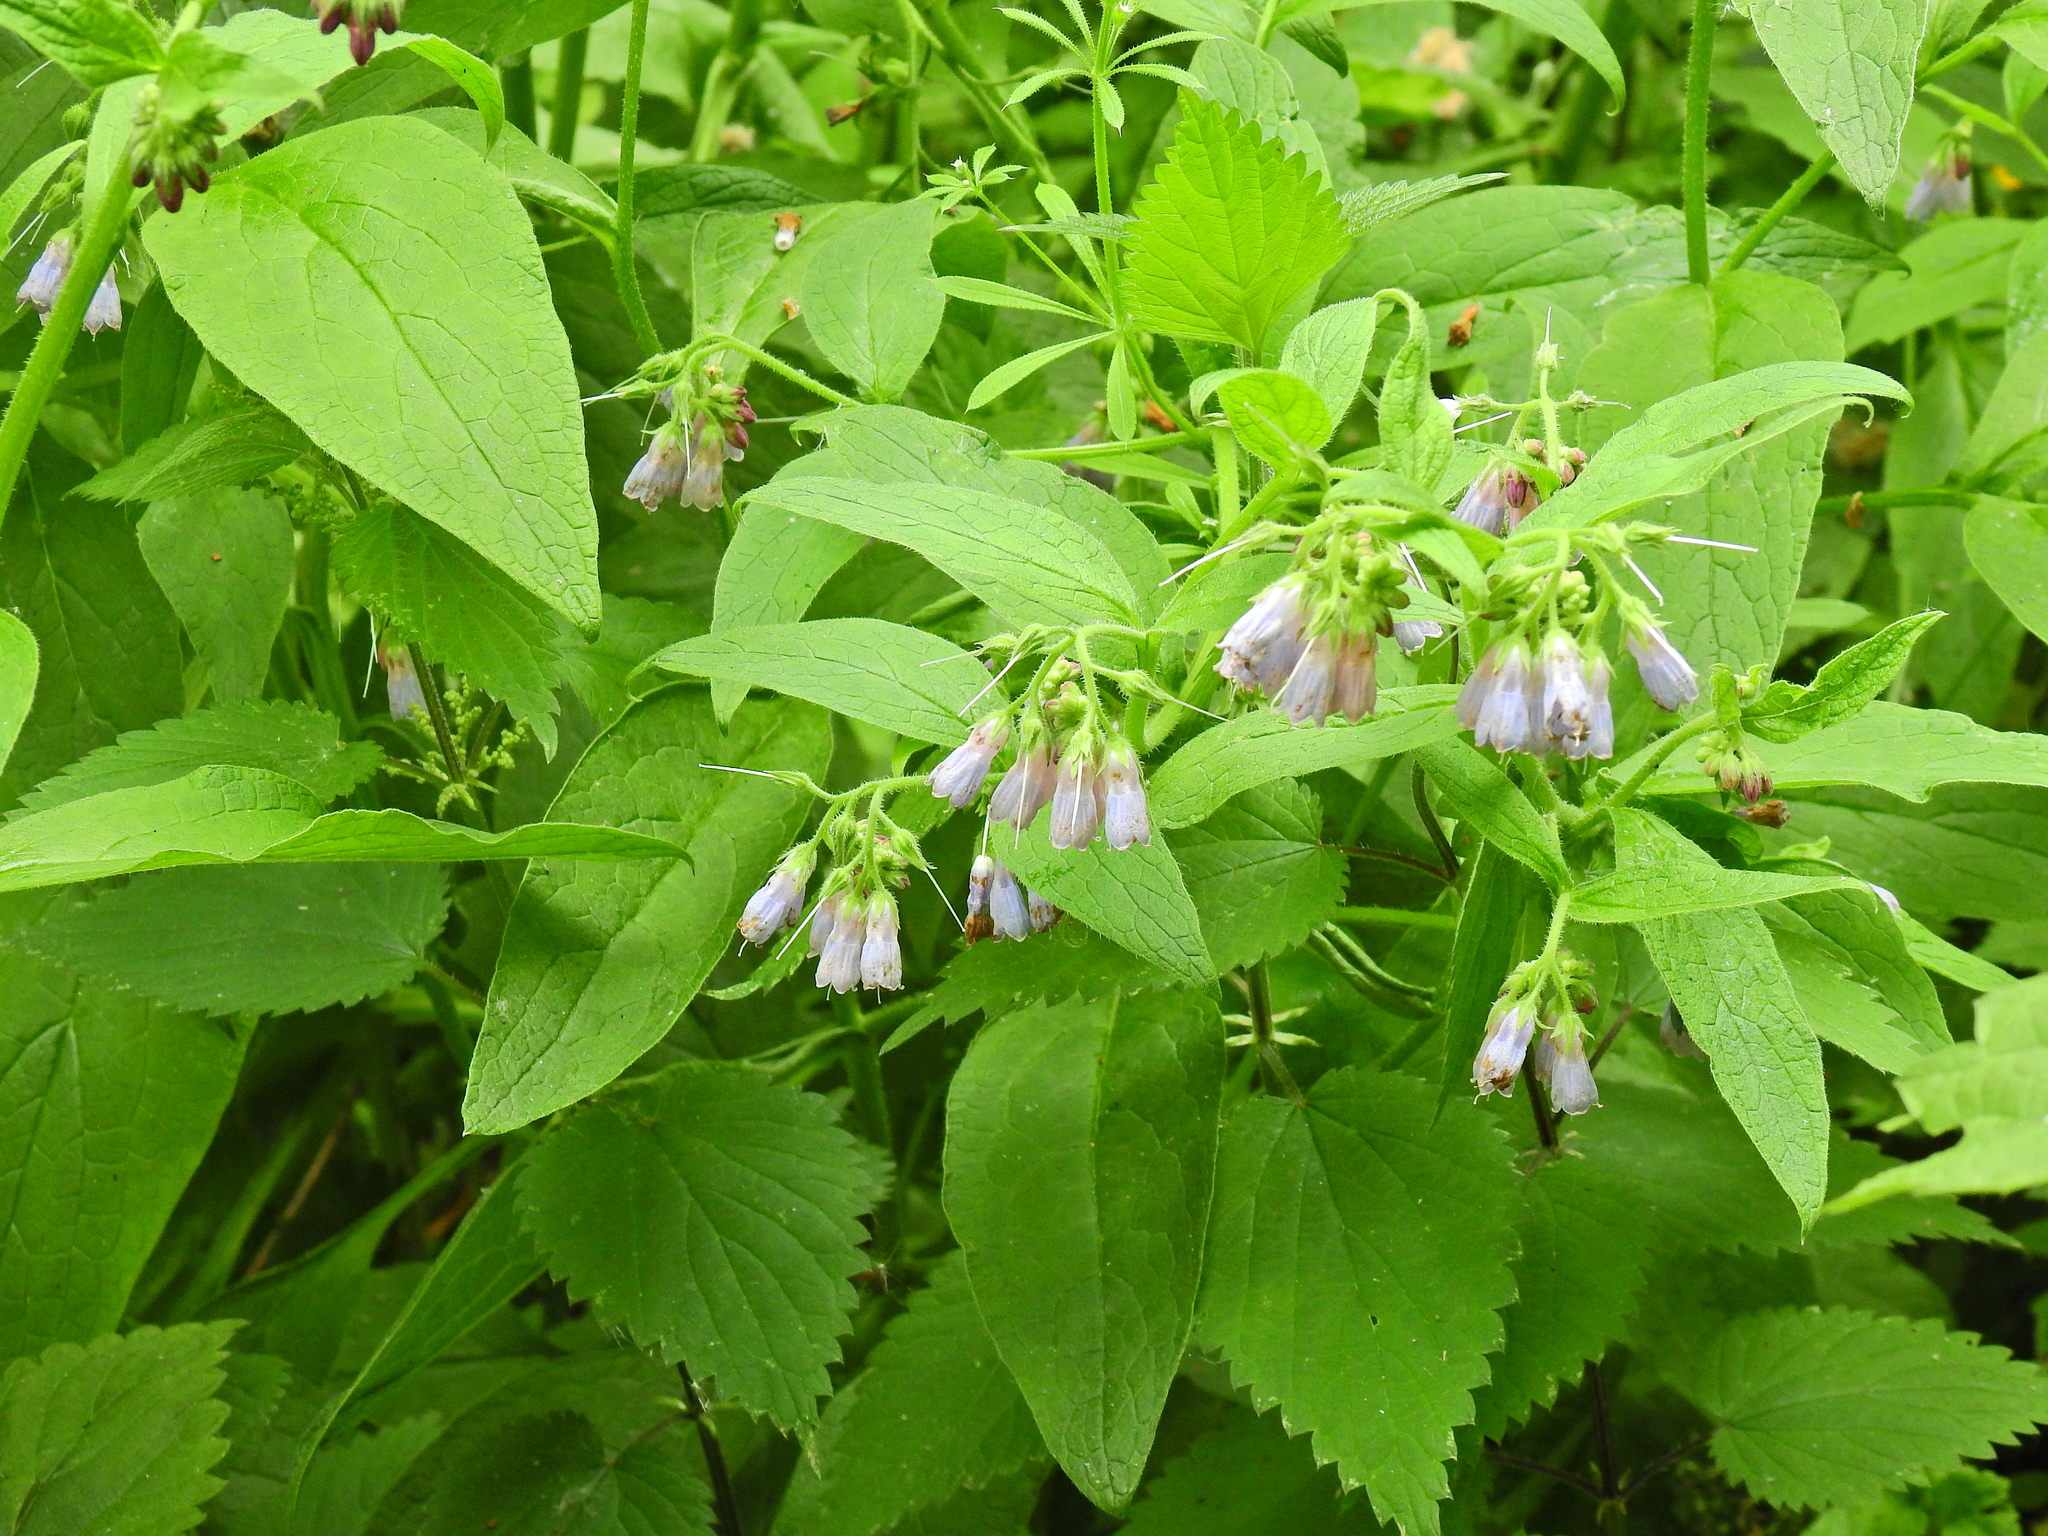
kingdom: Plantae
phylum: Tracheophyta
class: Magnoliopsida
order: Boraginales
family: Boraginaceae
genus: Symphytum
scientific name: Symphytum officinale
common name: Common comfrey
